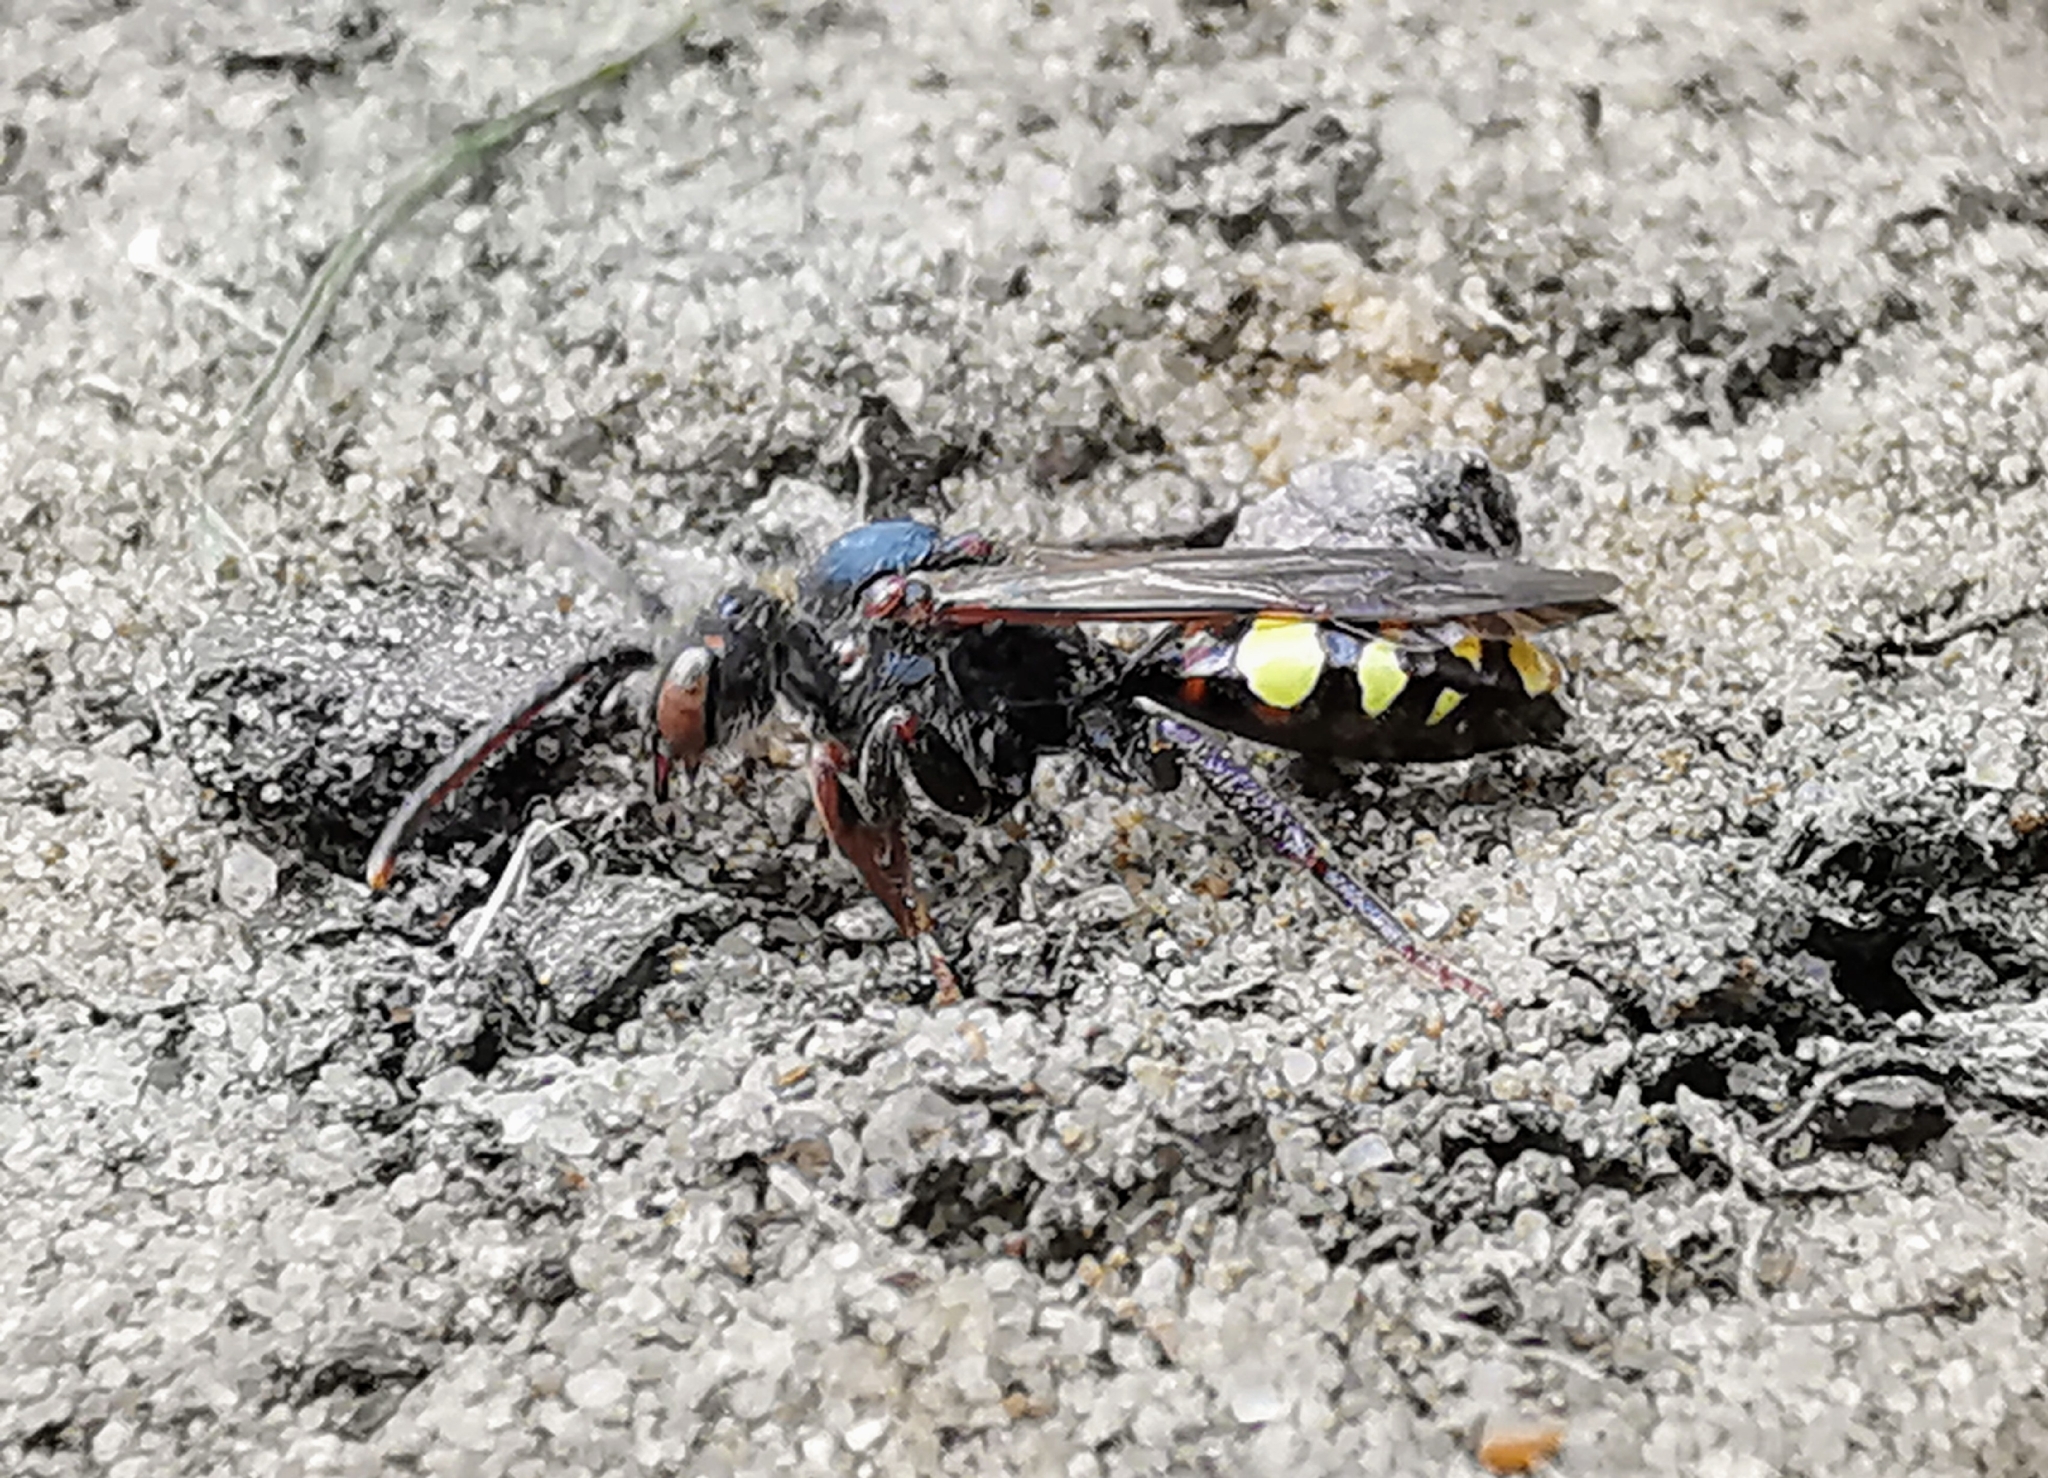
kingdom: Animalia
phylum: Arthropoda
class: Insecta
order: Hymenoptera
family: Apidae
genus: Nomada
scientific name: Nomada leucophthalma
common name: Early nomad bee
